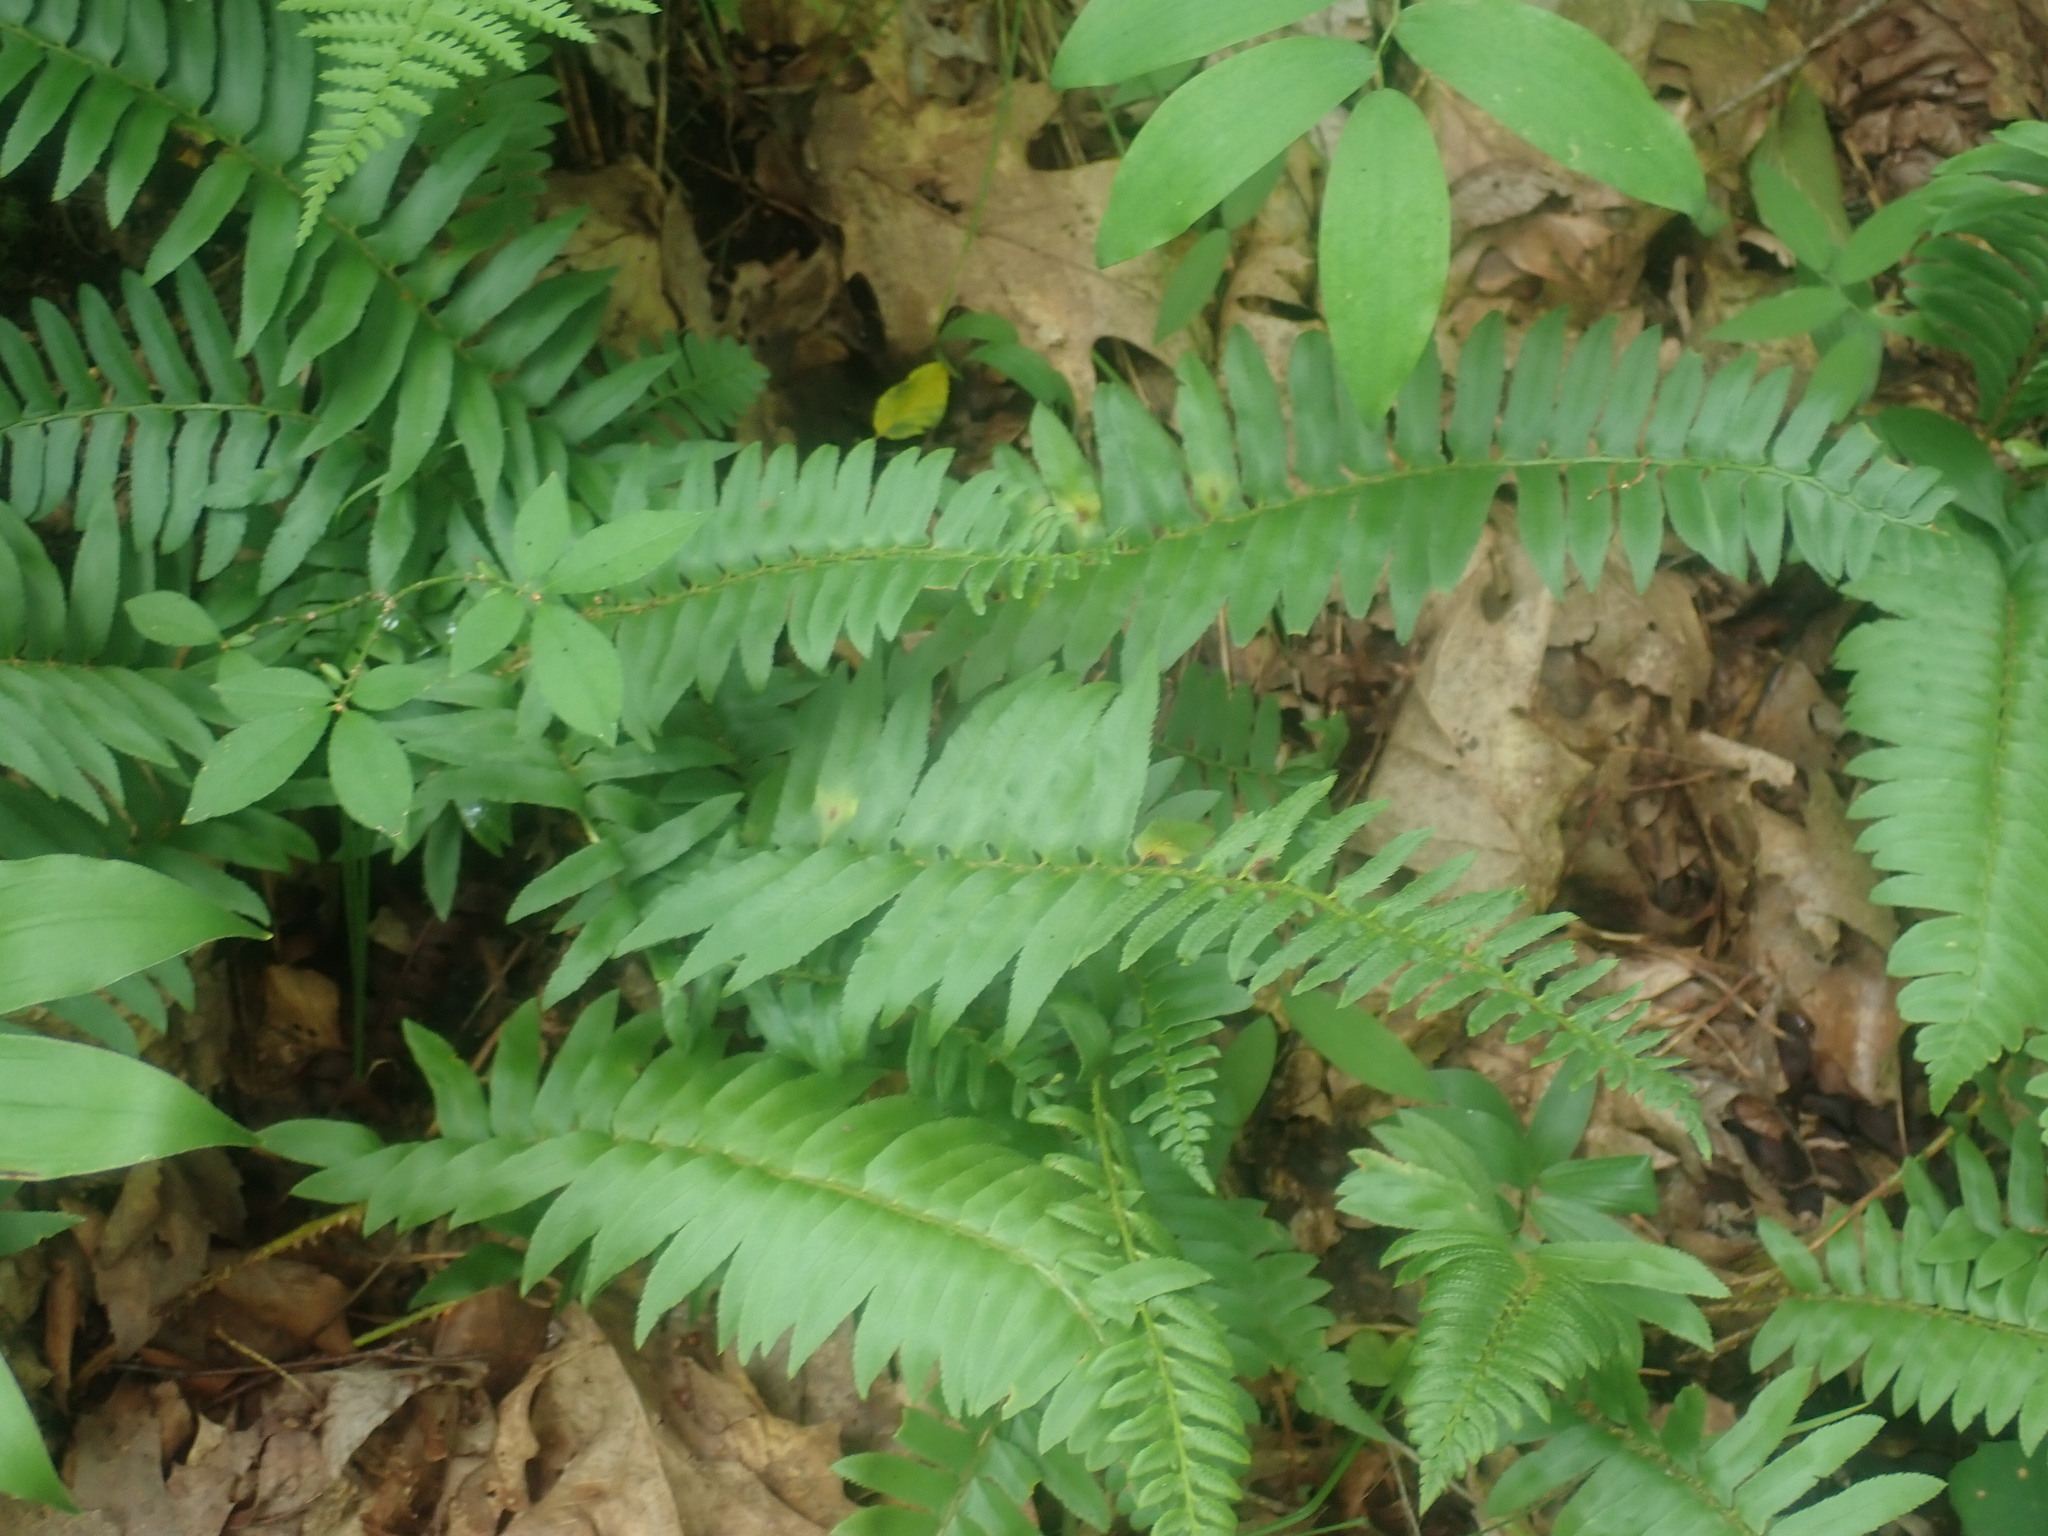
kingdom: Plantae
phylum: Tracheophyta
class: Polypodiopsida
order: Polypodiales
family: Dryopteridaceae
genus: Polystichum
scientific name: Polystichum acrostichoides
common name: Christmas fern
